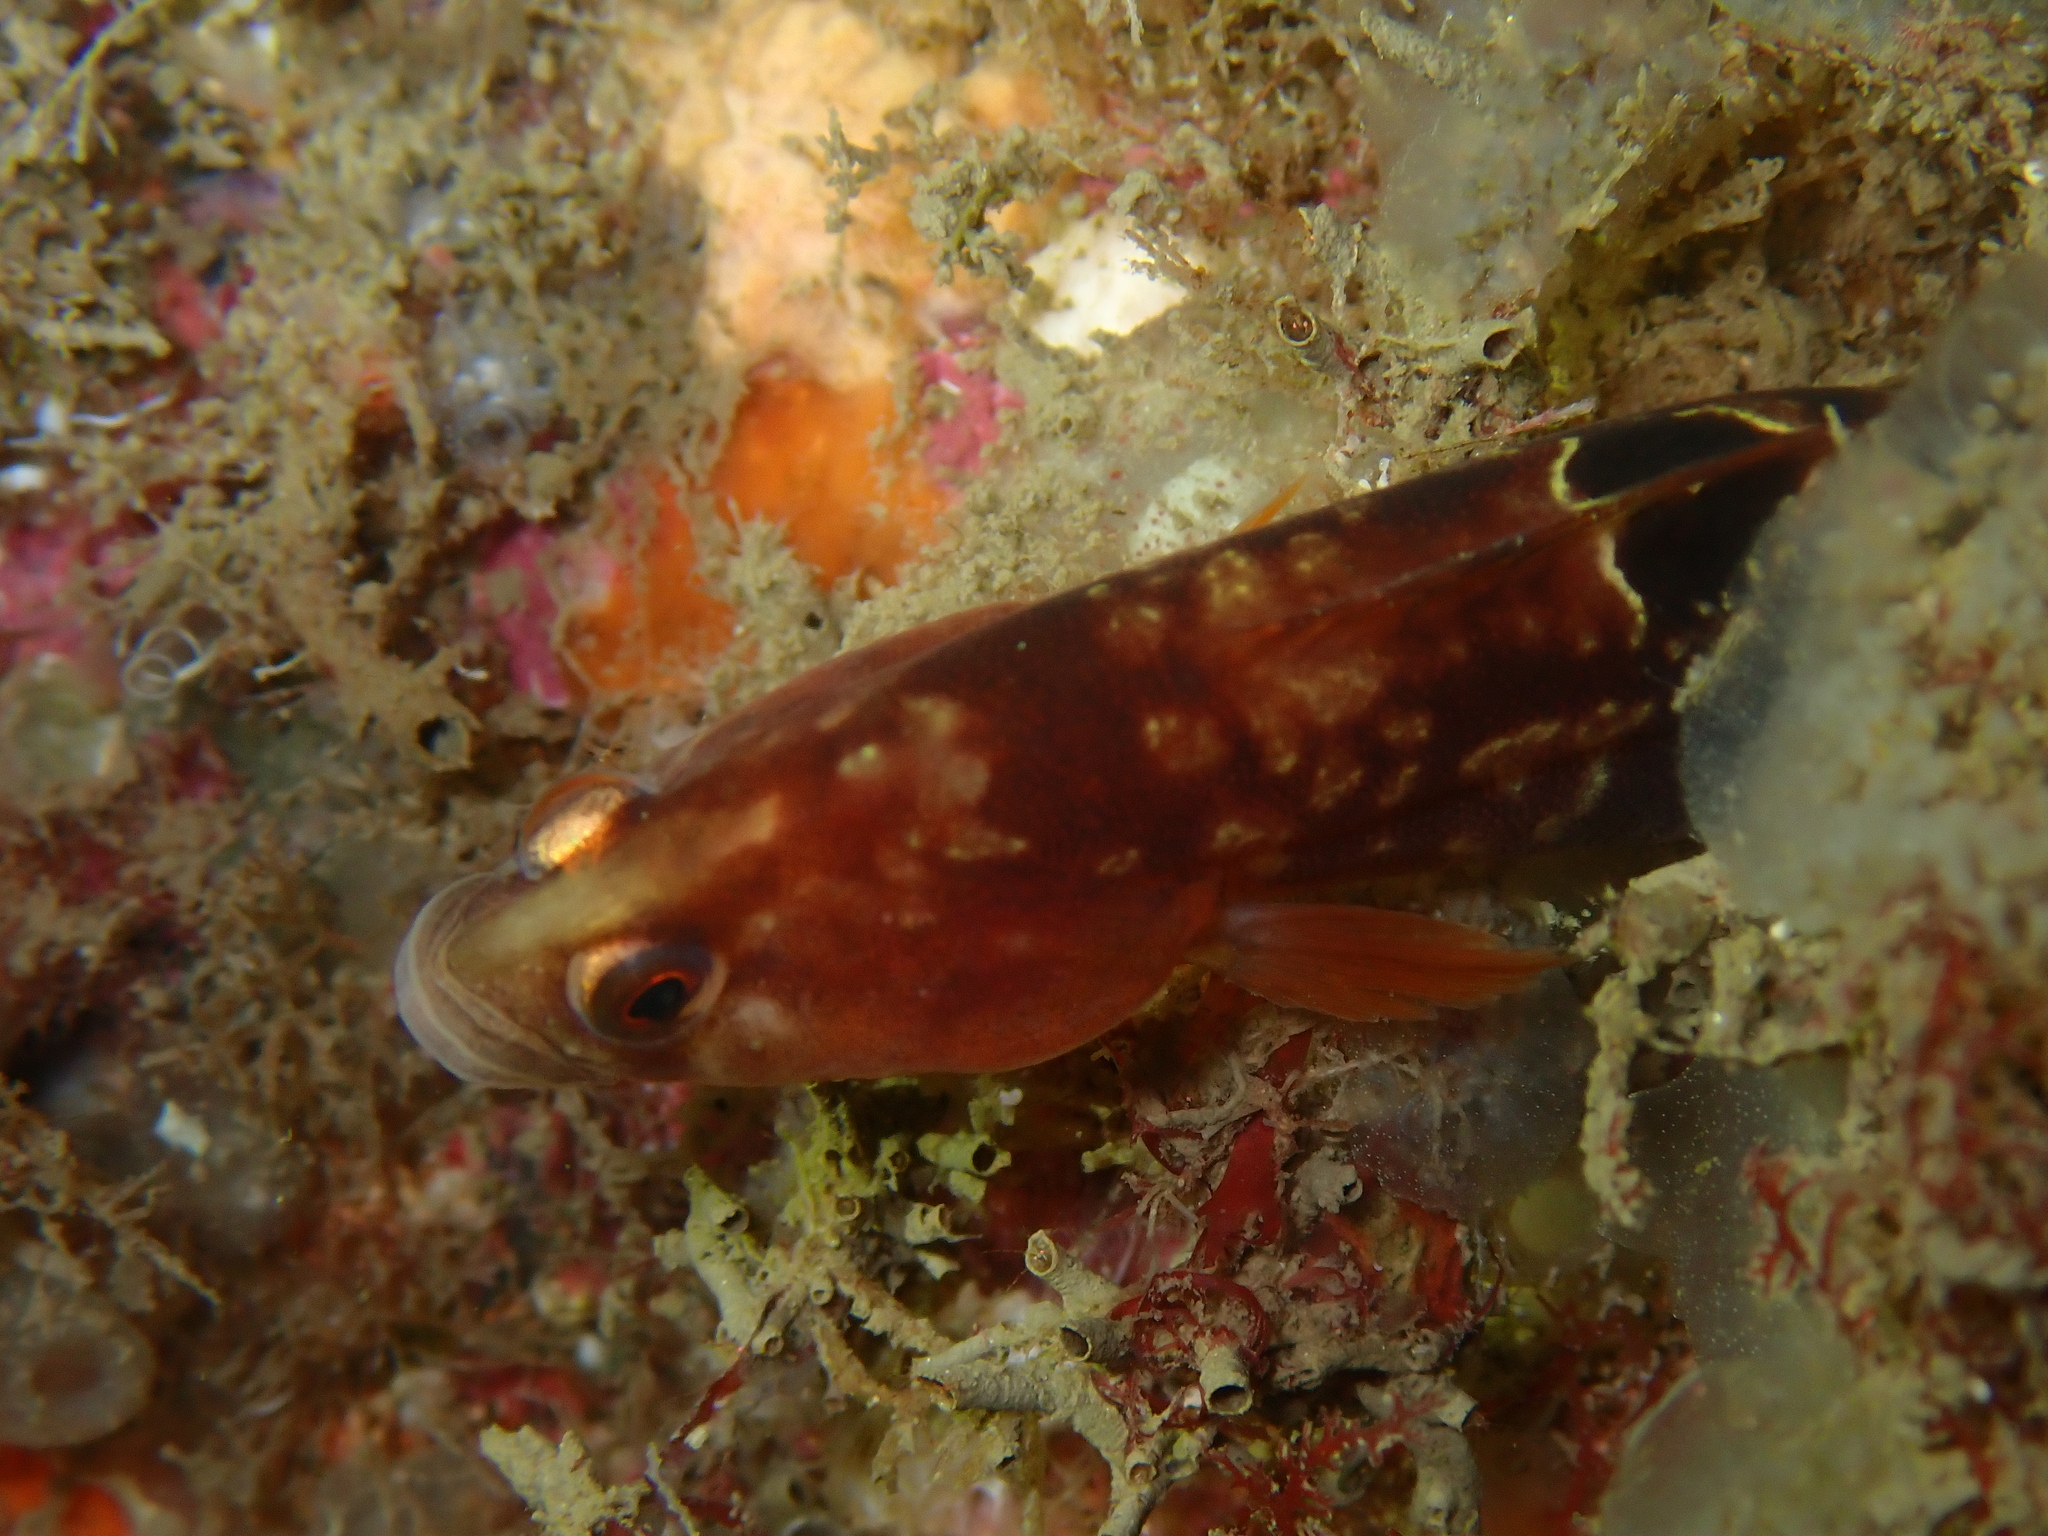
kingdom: Animalia
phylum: Chordata
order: Perciformes
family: Pholidae
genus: Pholis
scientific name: Pholis gunnellus
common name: Butterfish
